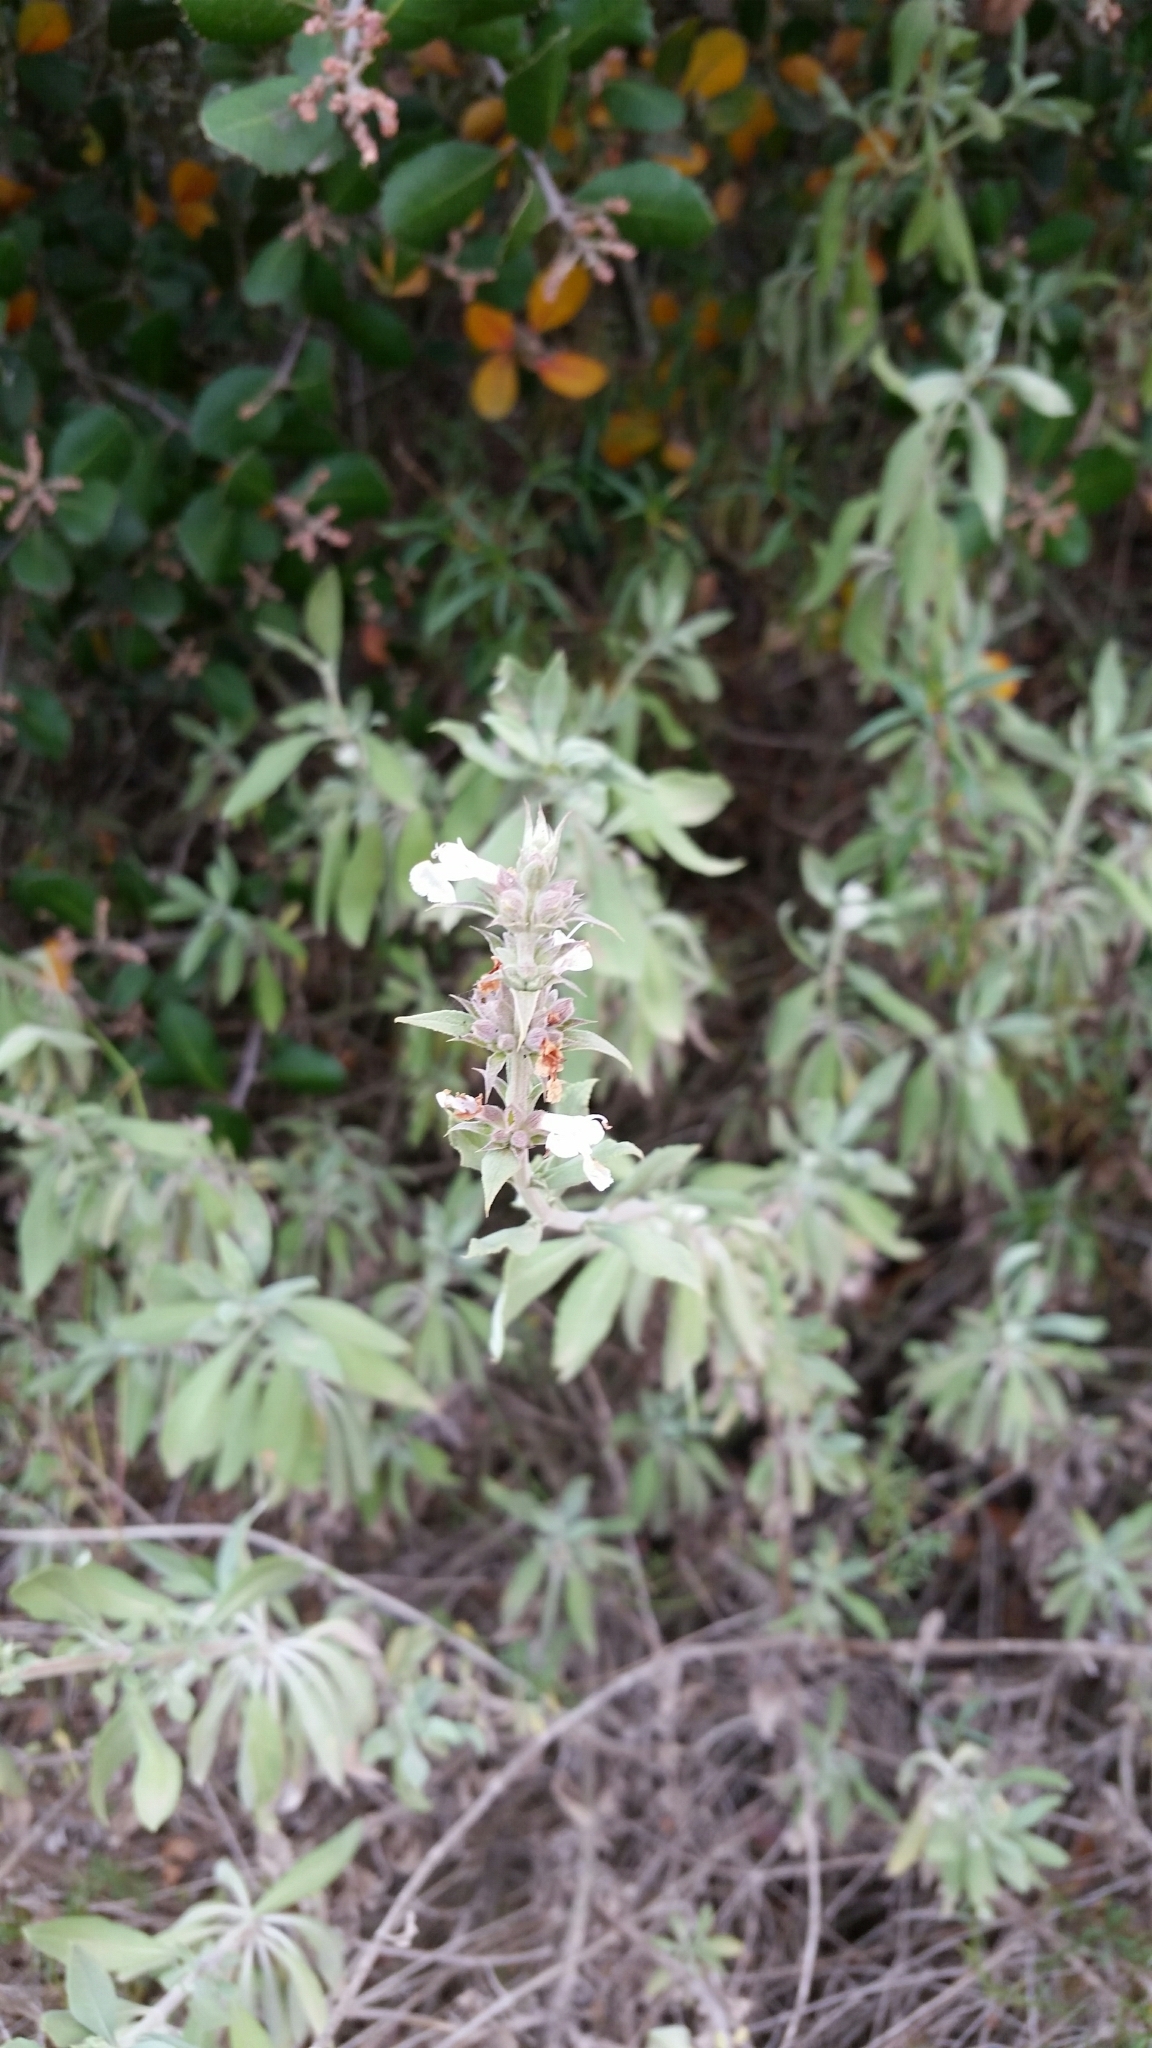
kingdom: Plantae
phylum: Tracheophyta
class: Magnoliopsida
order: Lamiales
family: Lamiaceae
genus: Salvia
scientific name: Salvia
